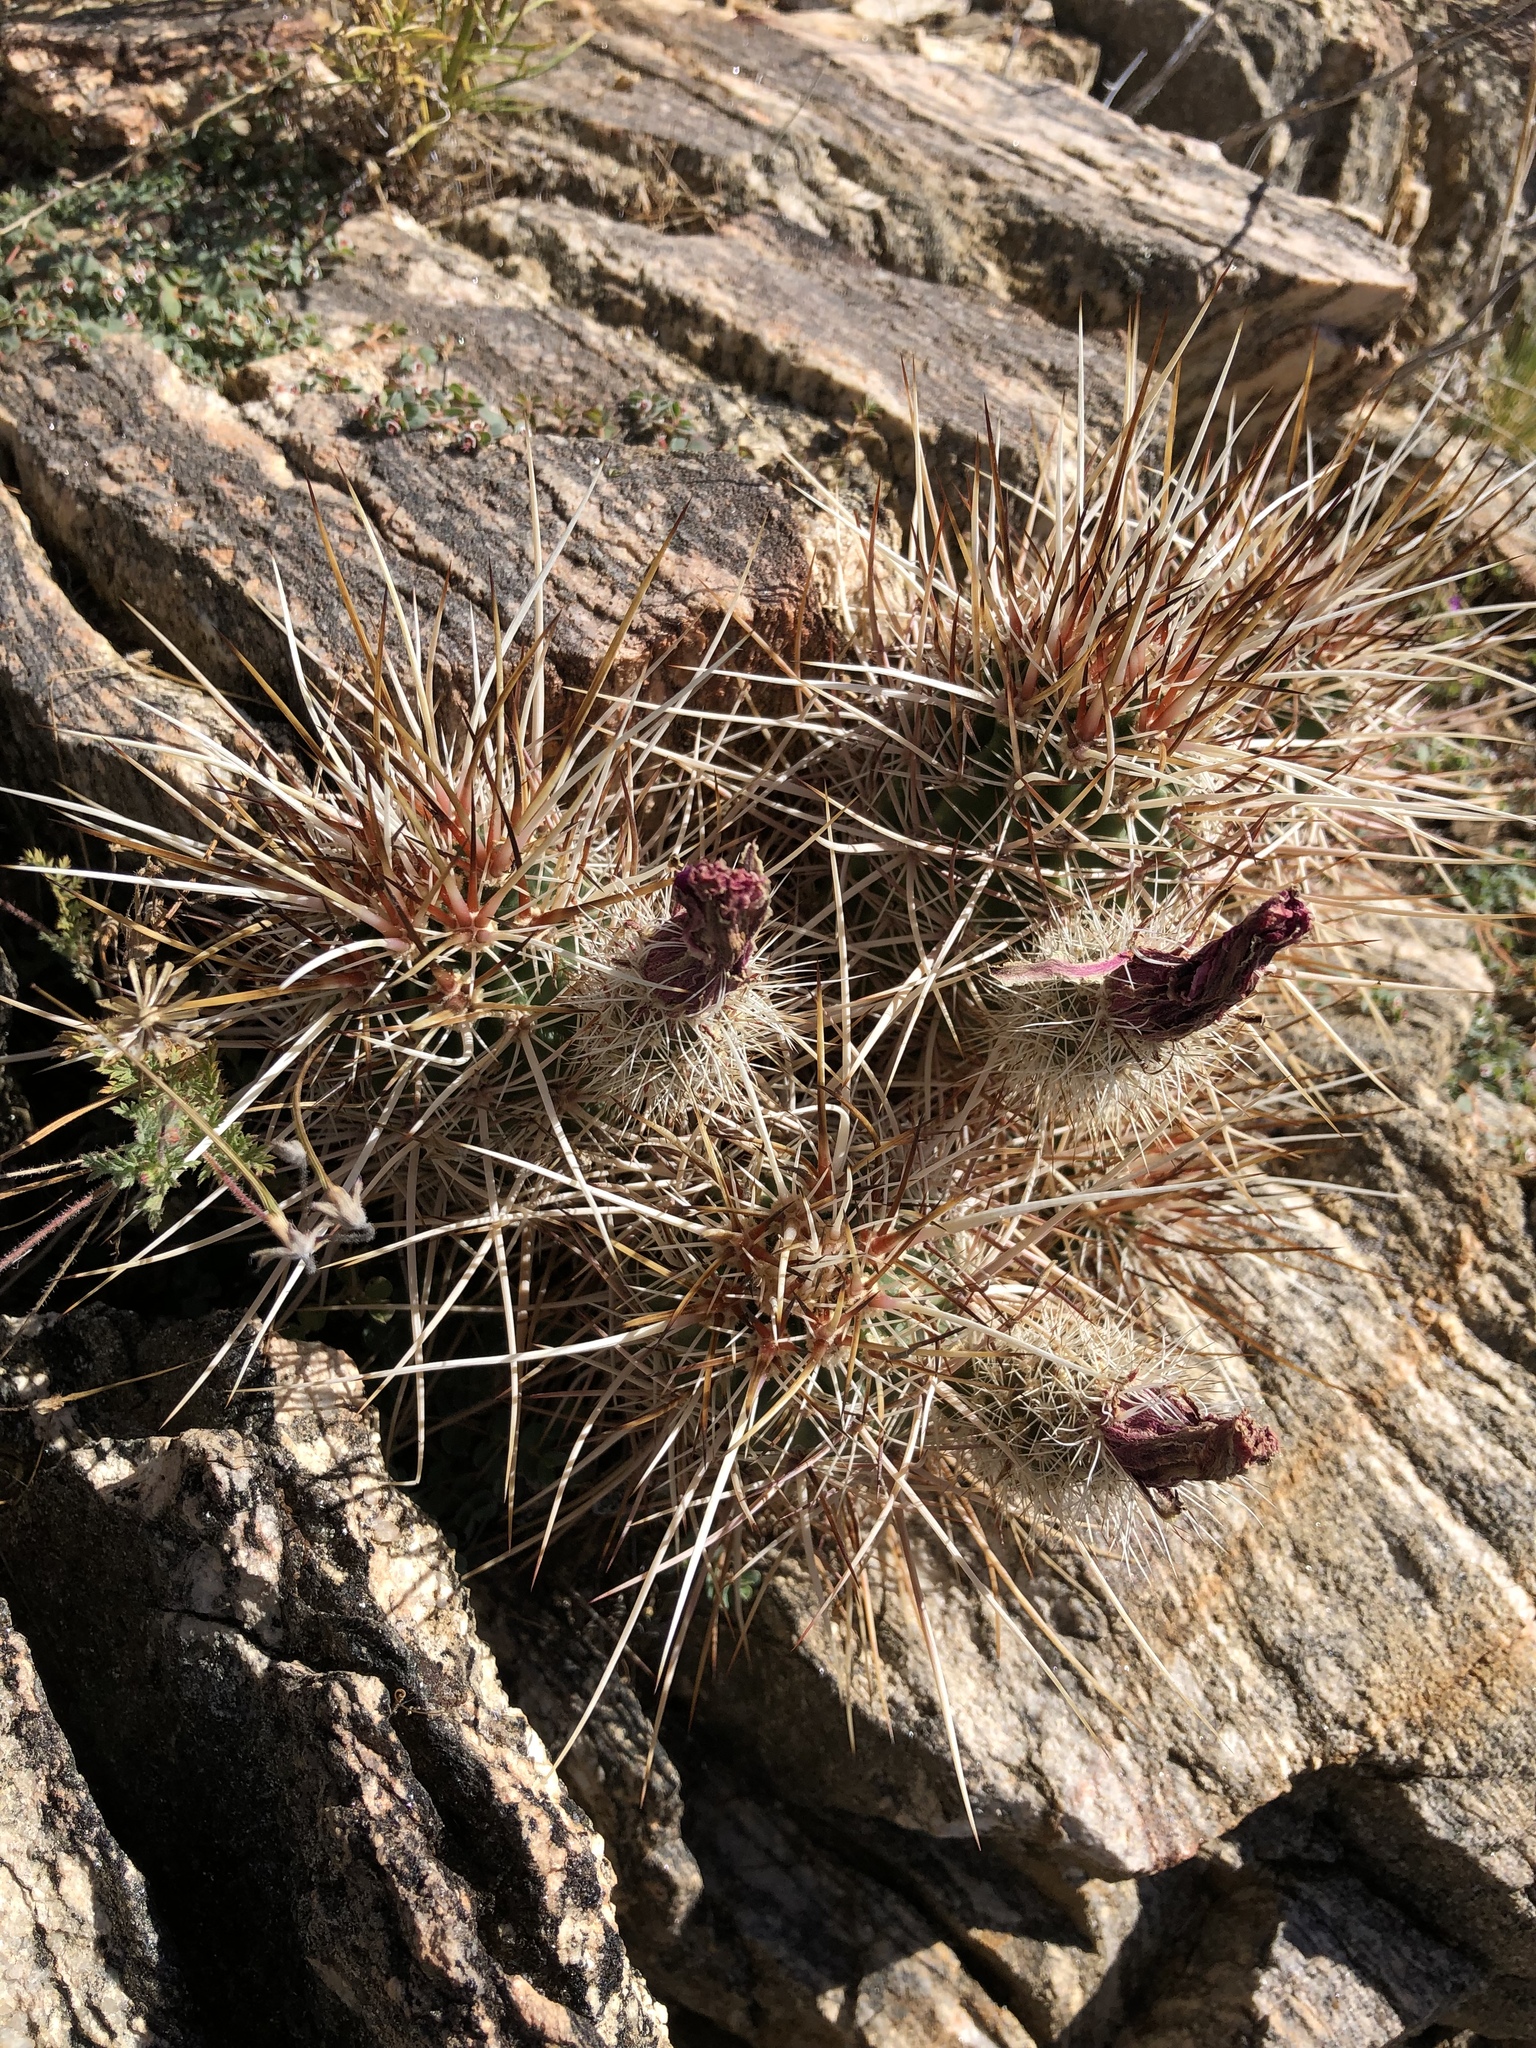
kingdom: Plantae
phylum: Tracheophyta
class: Magnoliopsida
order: Caryophyllales
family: Cactaceae
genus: Echinocereus
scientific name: Echinocereus engelmannii
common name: Engelmann's hedgehog cactus
